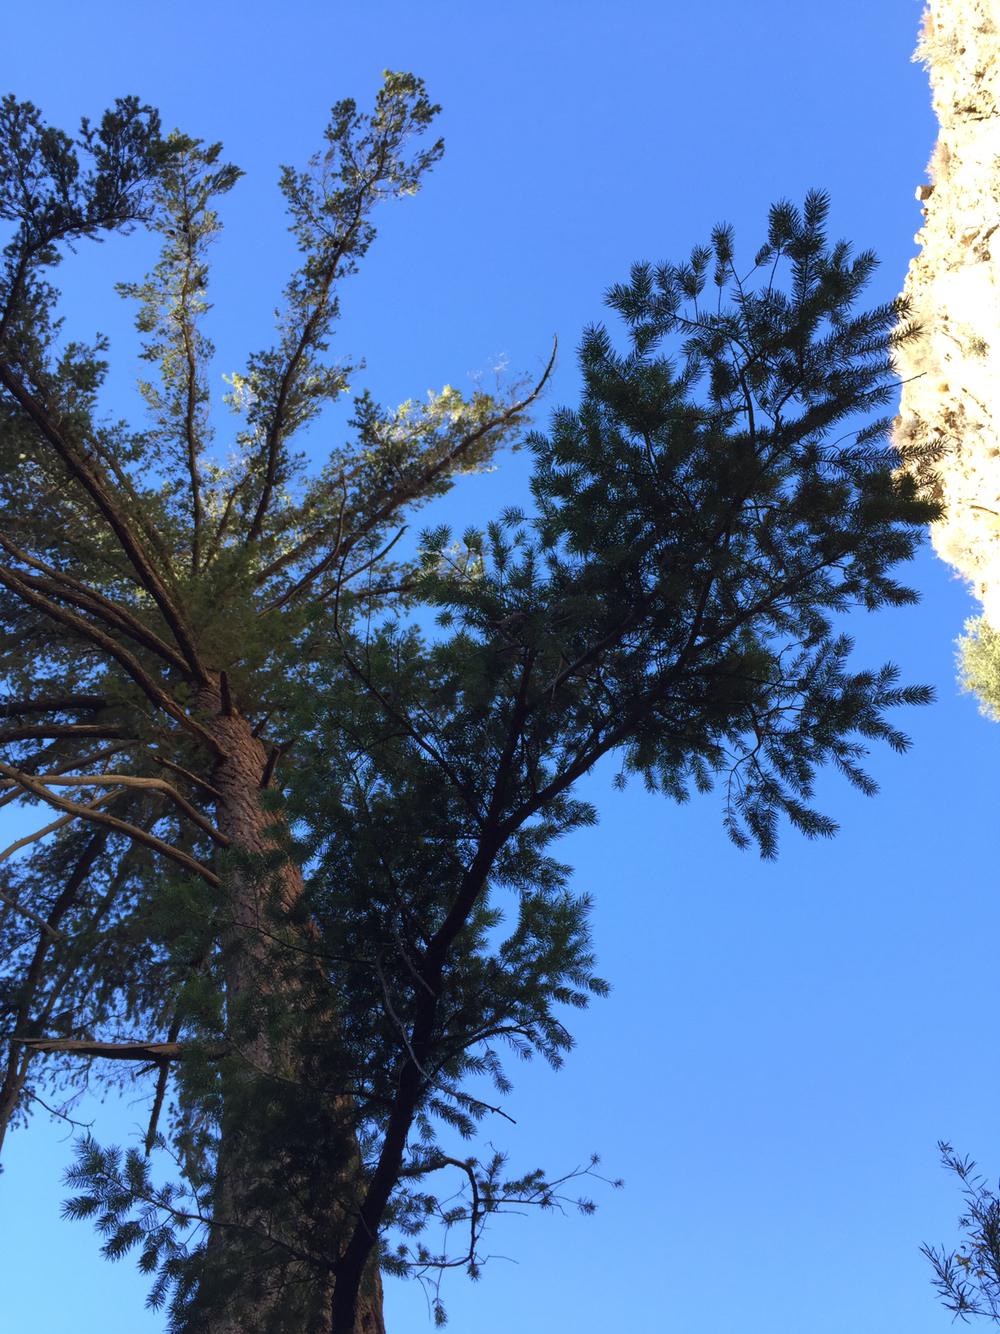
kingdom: Plantae
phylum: Tracheophyta
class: Pinopsida
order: Pinales
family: Pinaceae
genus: Pseudotsuga
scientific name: Pseudotsuga macrocarpa
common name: Big-cone douglas-fir
